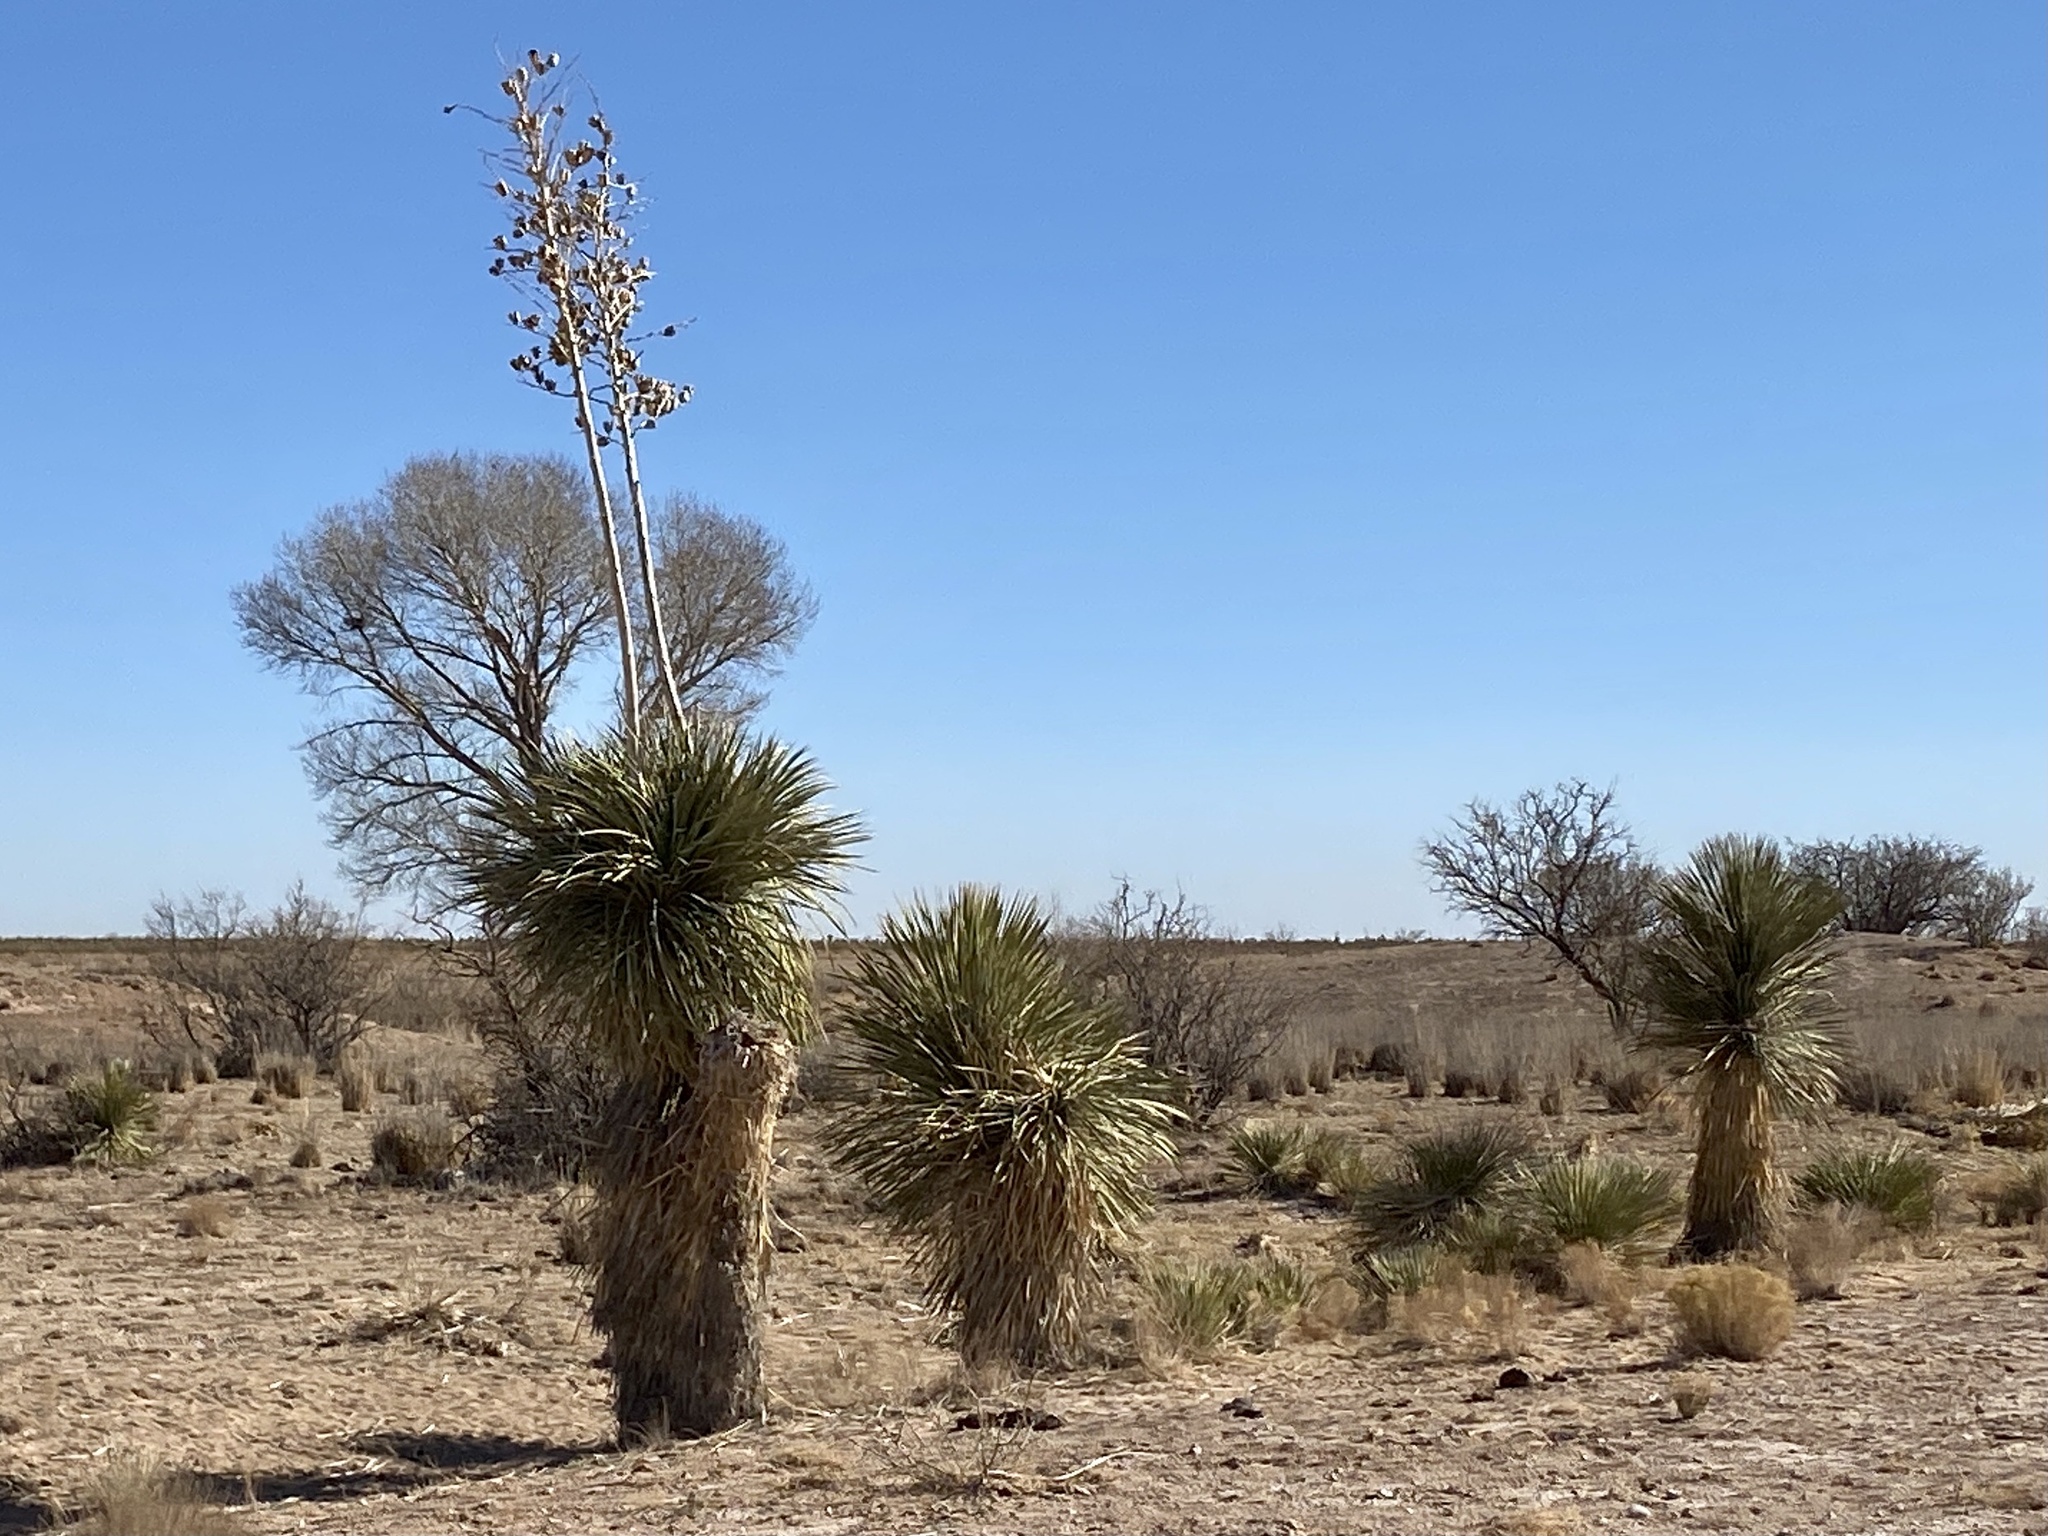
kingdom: Plantae
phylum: Tracheophyta
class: Liliopsida
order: Asparagales
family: Asparagaceae
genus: Yucca
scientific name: Yucca elata
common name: Palmella
